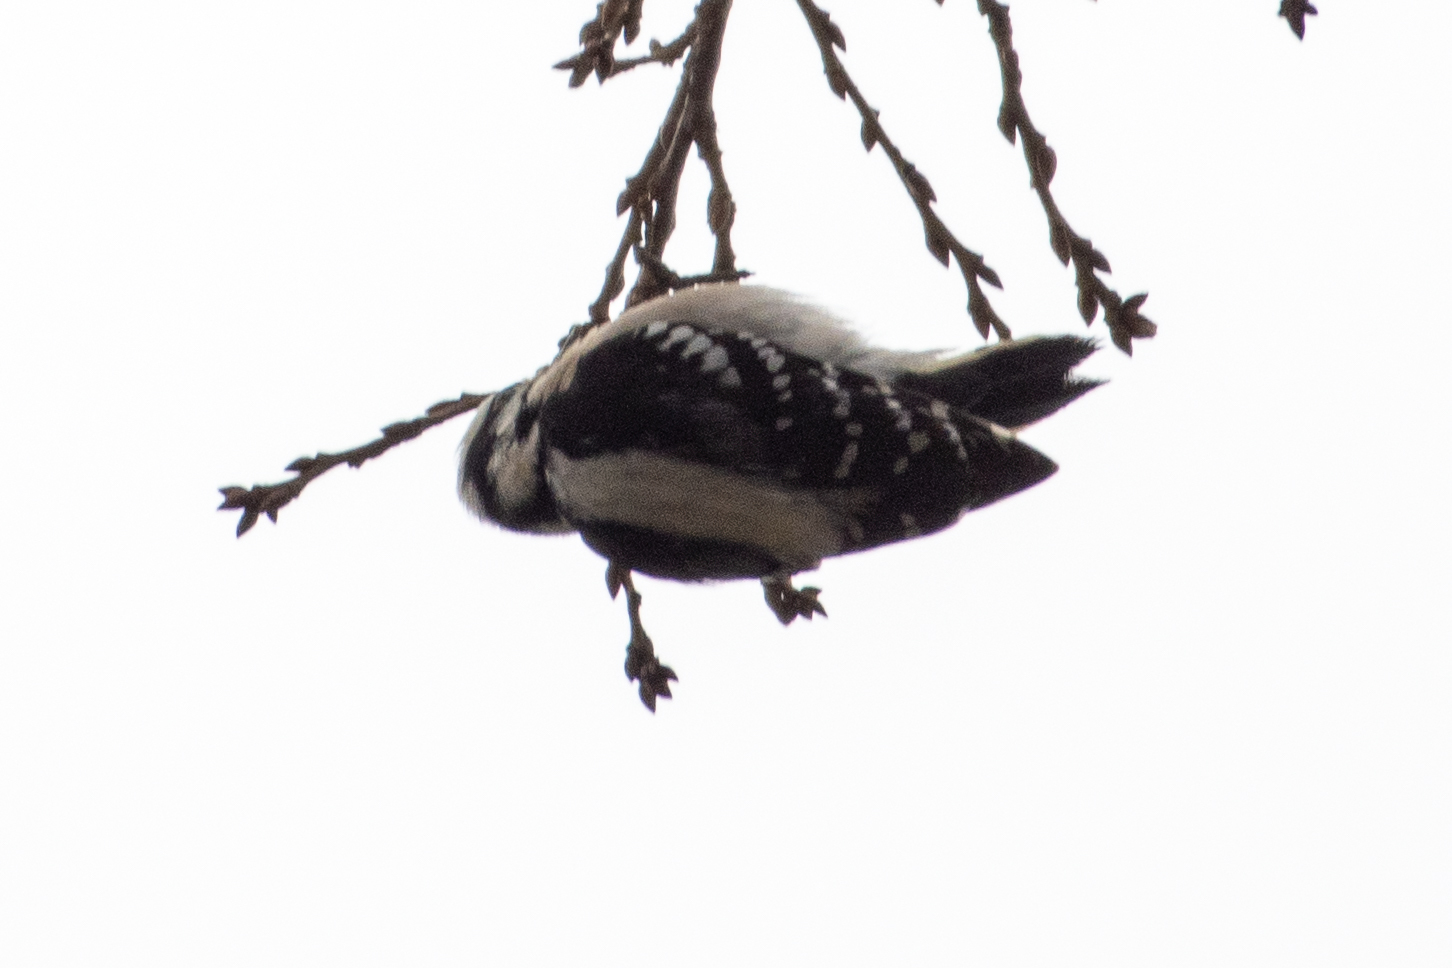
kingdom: Animalia
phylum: Chordata
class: Aves
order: Piciformes
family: Picidae
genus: Dryobates
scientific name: Dryobates pubescens
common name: Downy woodpecker
